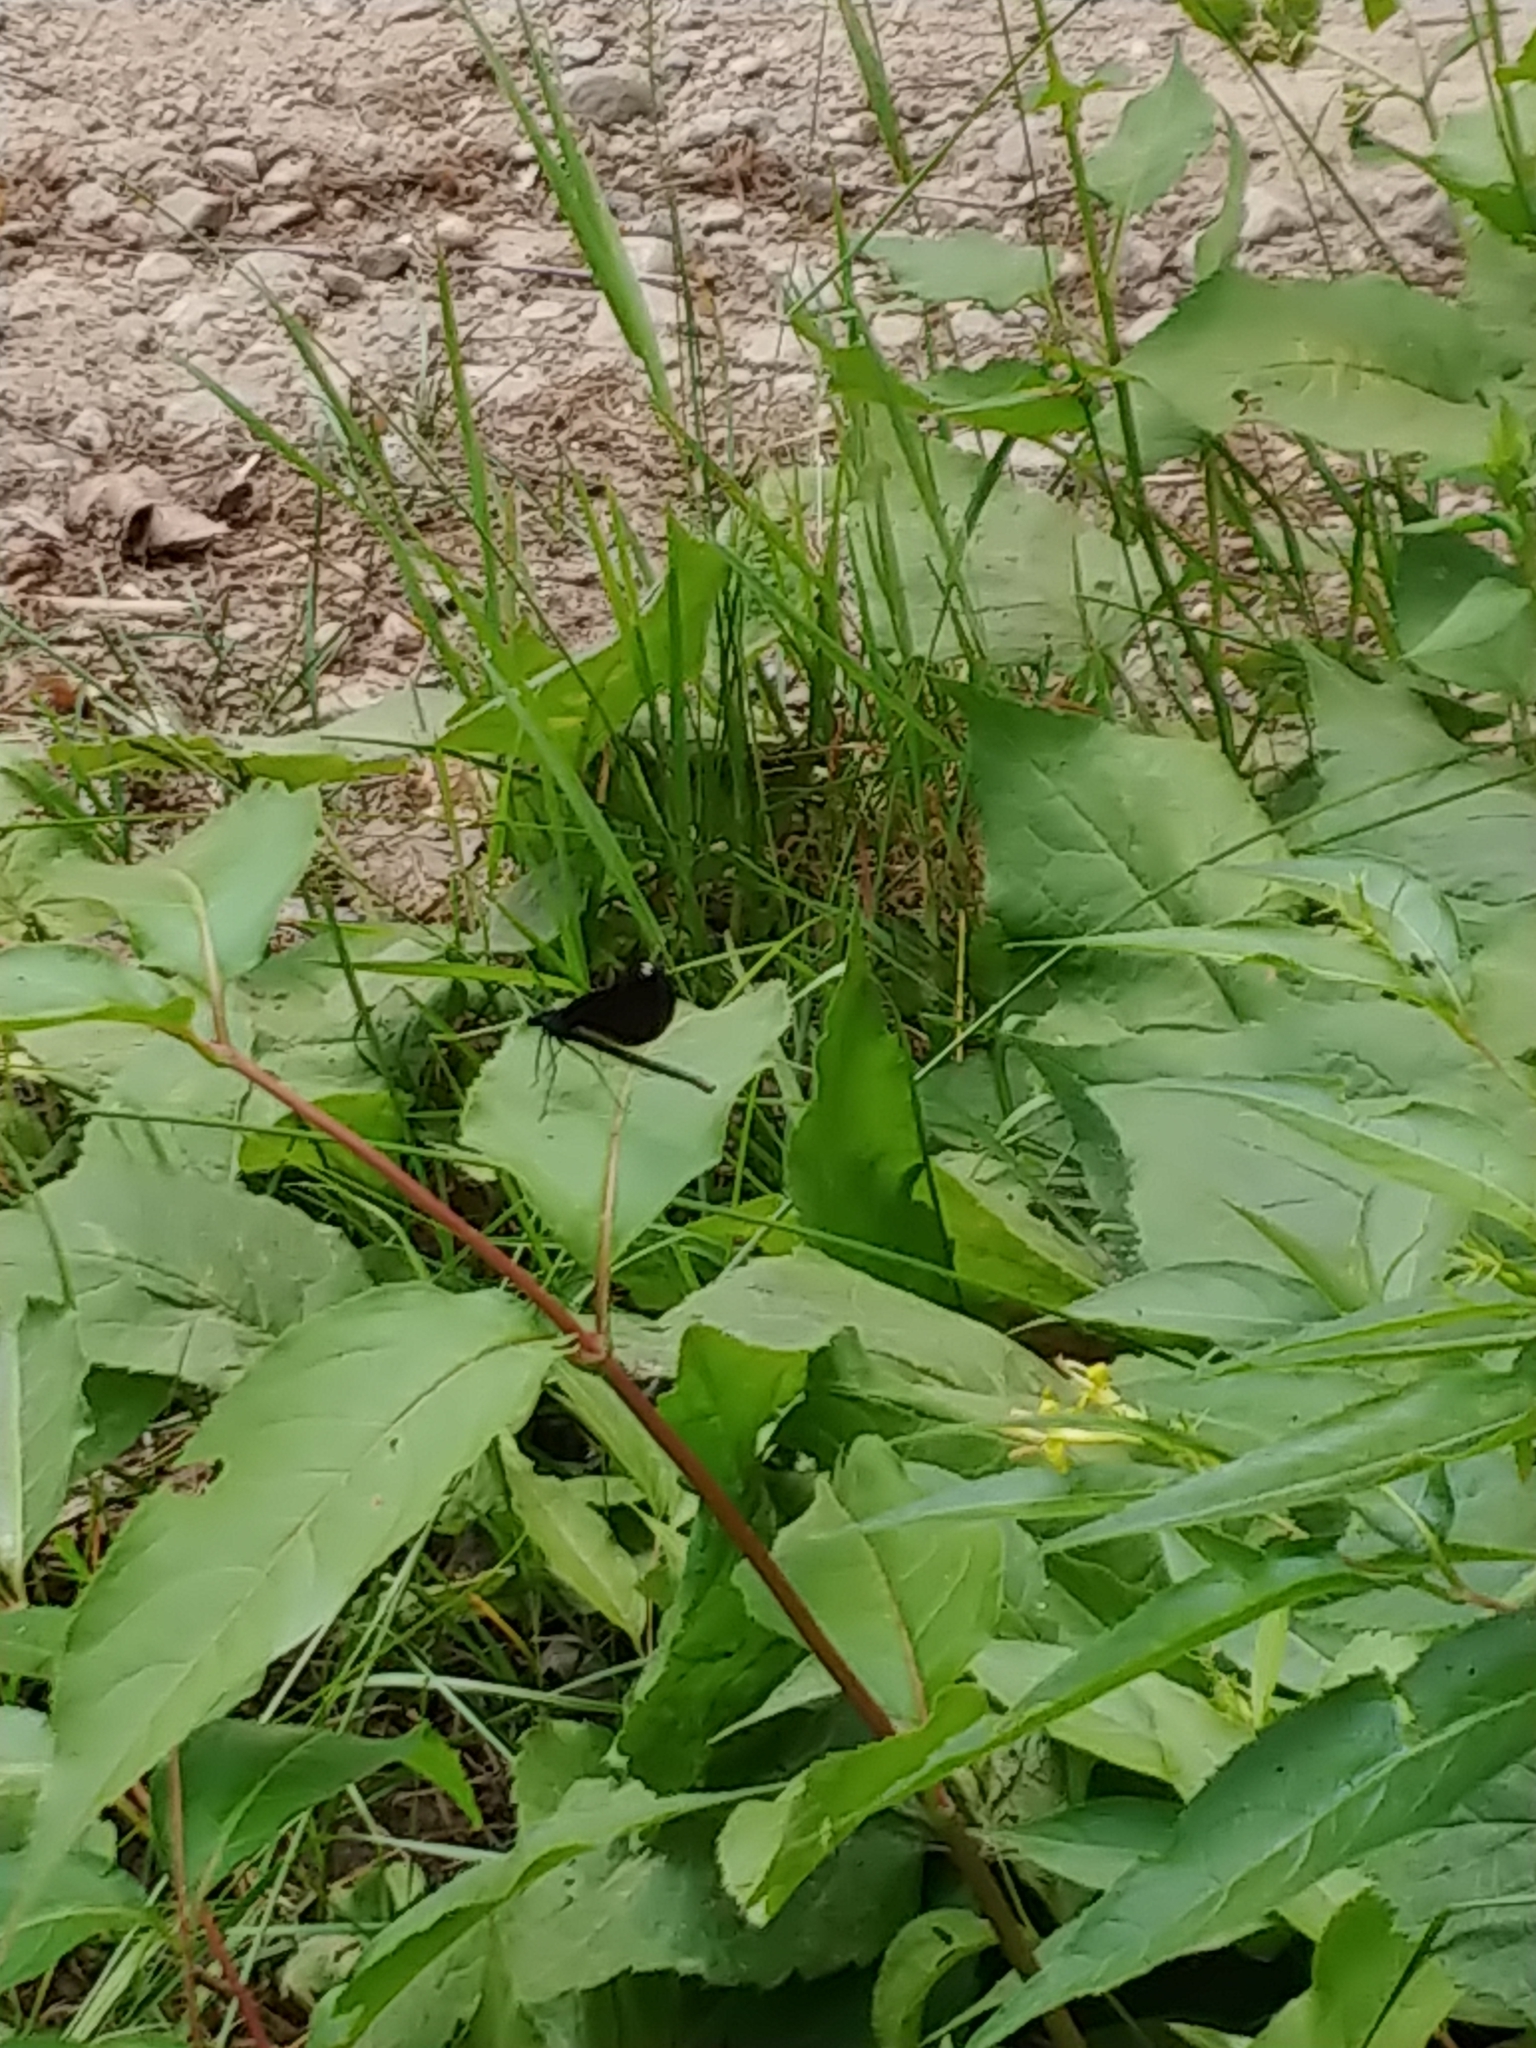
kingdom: Animalia
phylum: Arthropoda
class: Insecta
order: Odonata
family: Calopterygidae
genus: Calopteryx
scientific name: Calopteryx maculata
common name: Ebony jewelwing
